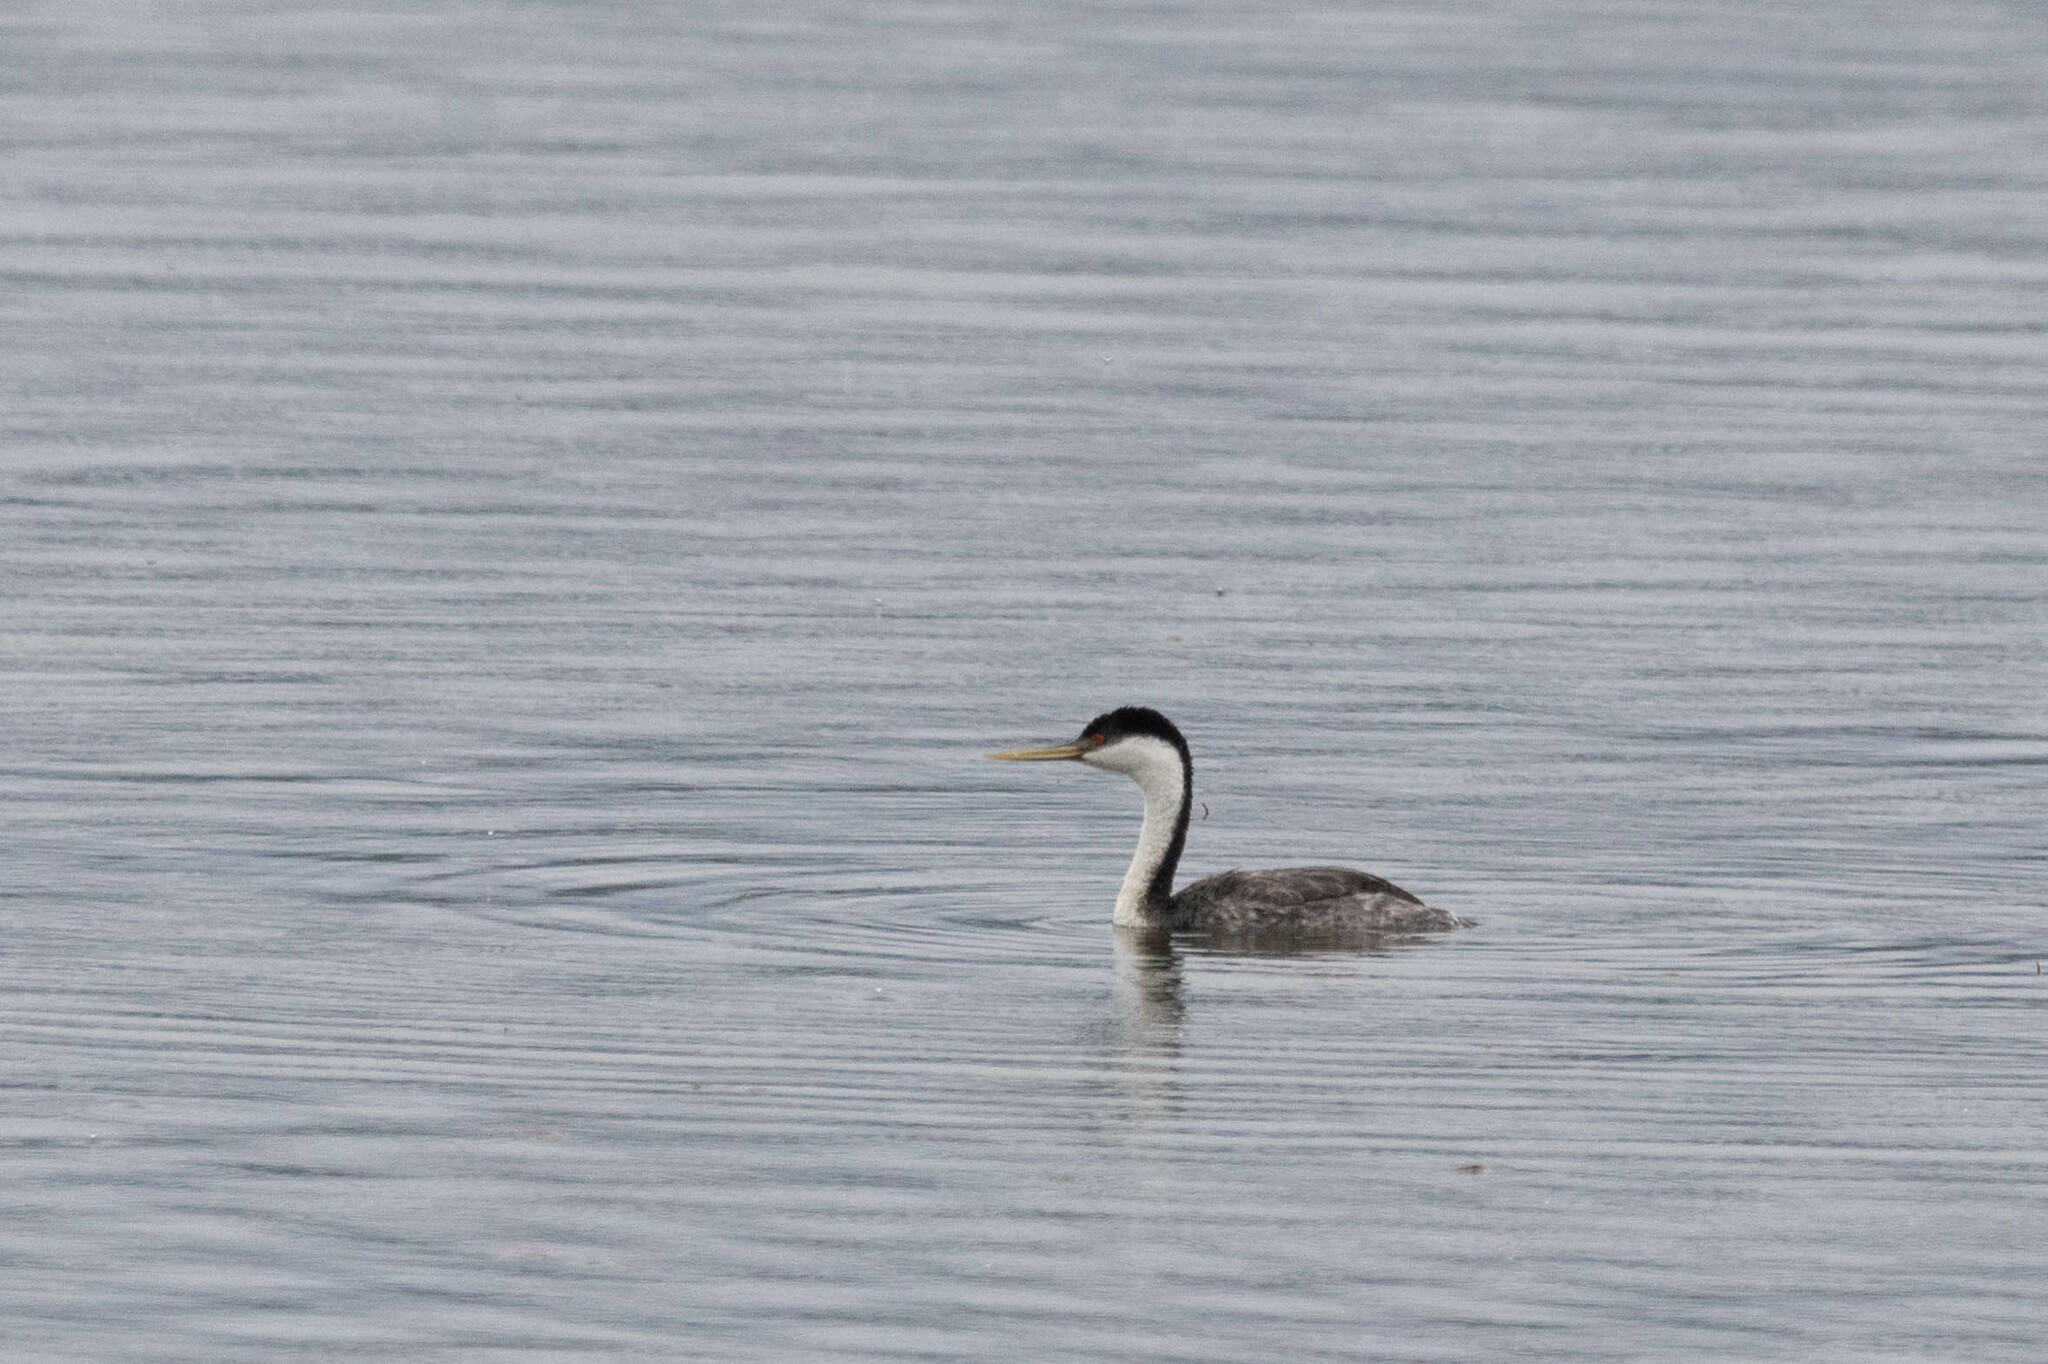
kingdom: Animalia
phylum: Chordata
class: Aves
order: Podicipediformes
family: Podicipedidae
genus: Aechmophorus
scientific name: Aechmophorus occidentalis
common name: Western grebe
